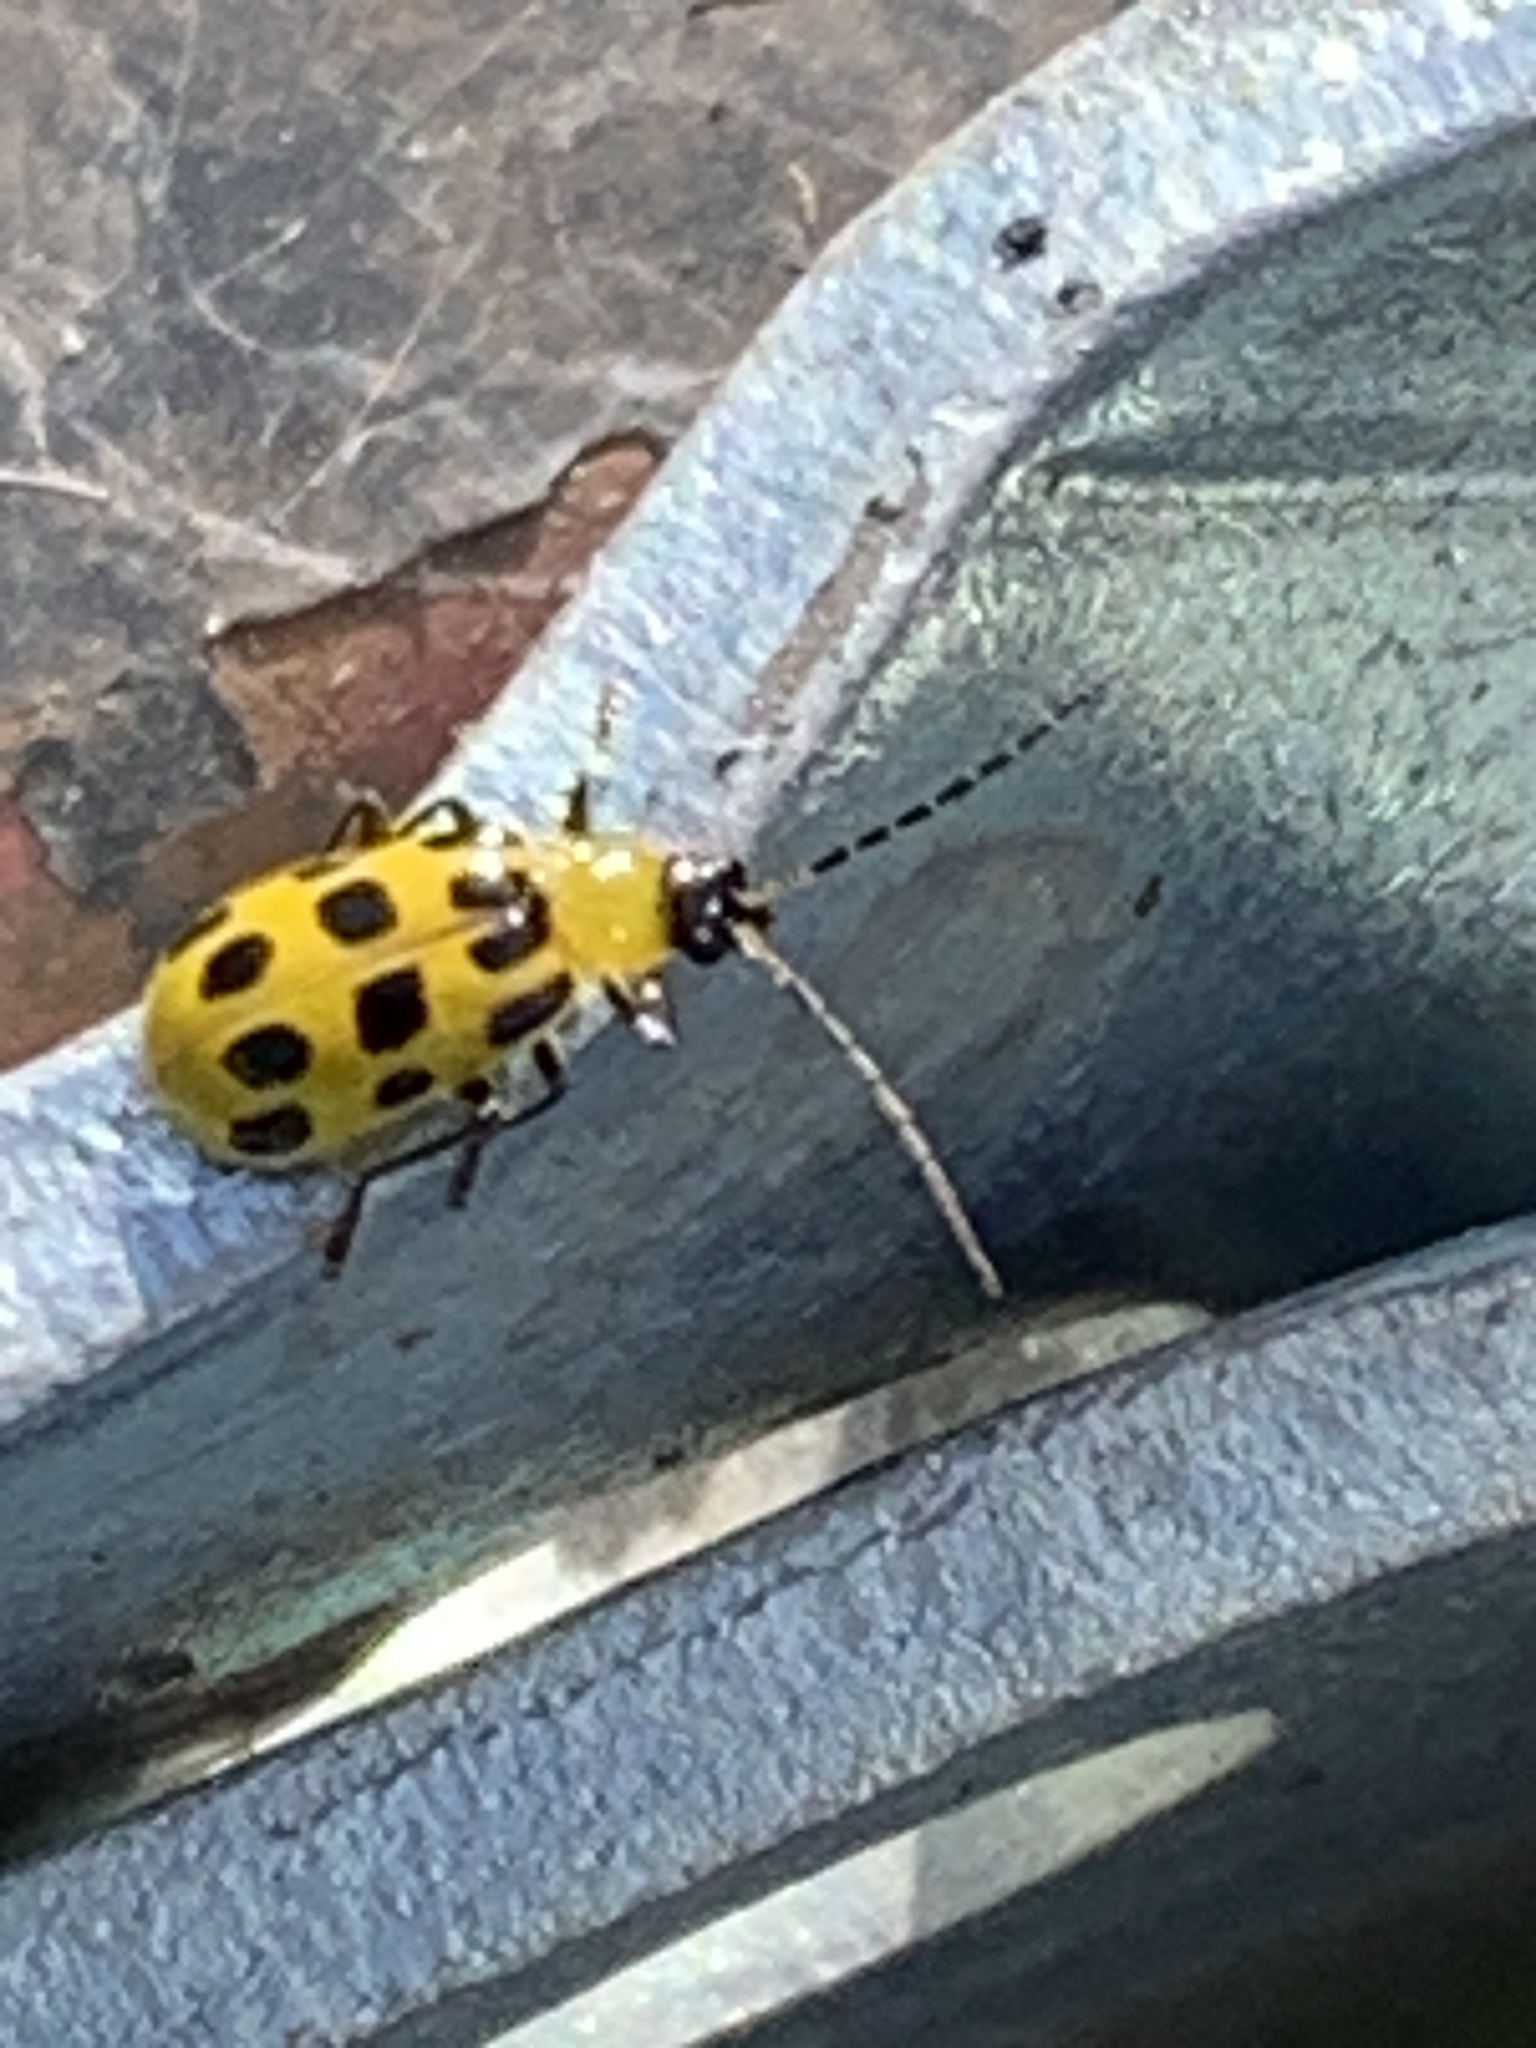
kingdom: Animalia
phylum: Arthropoda
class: Insecta
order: Coleoptera
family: Chrysomelidae
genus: Diabrotica
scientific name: Diabrotica undecimpunctata
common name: Spotted cucumber beetle
